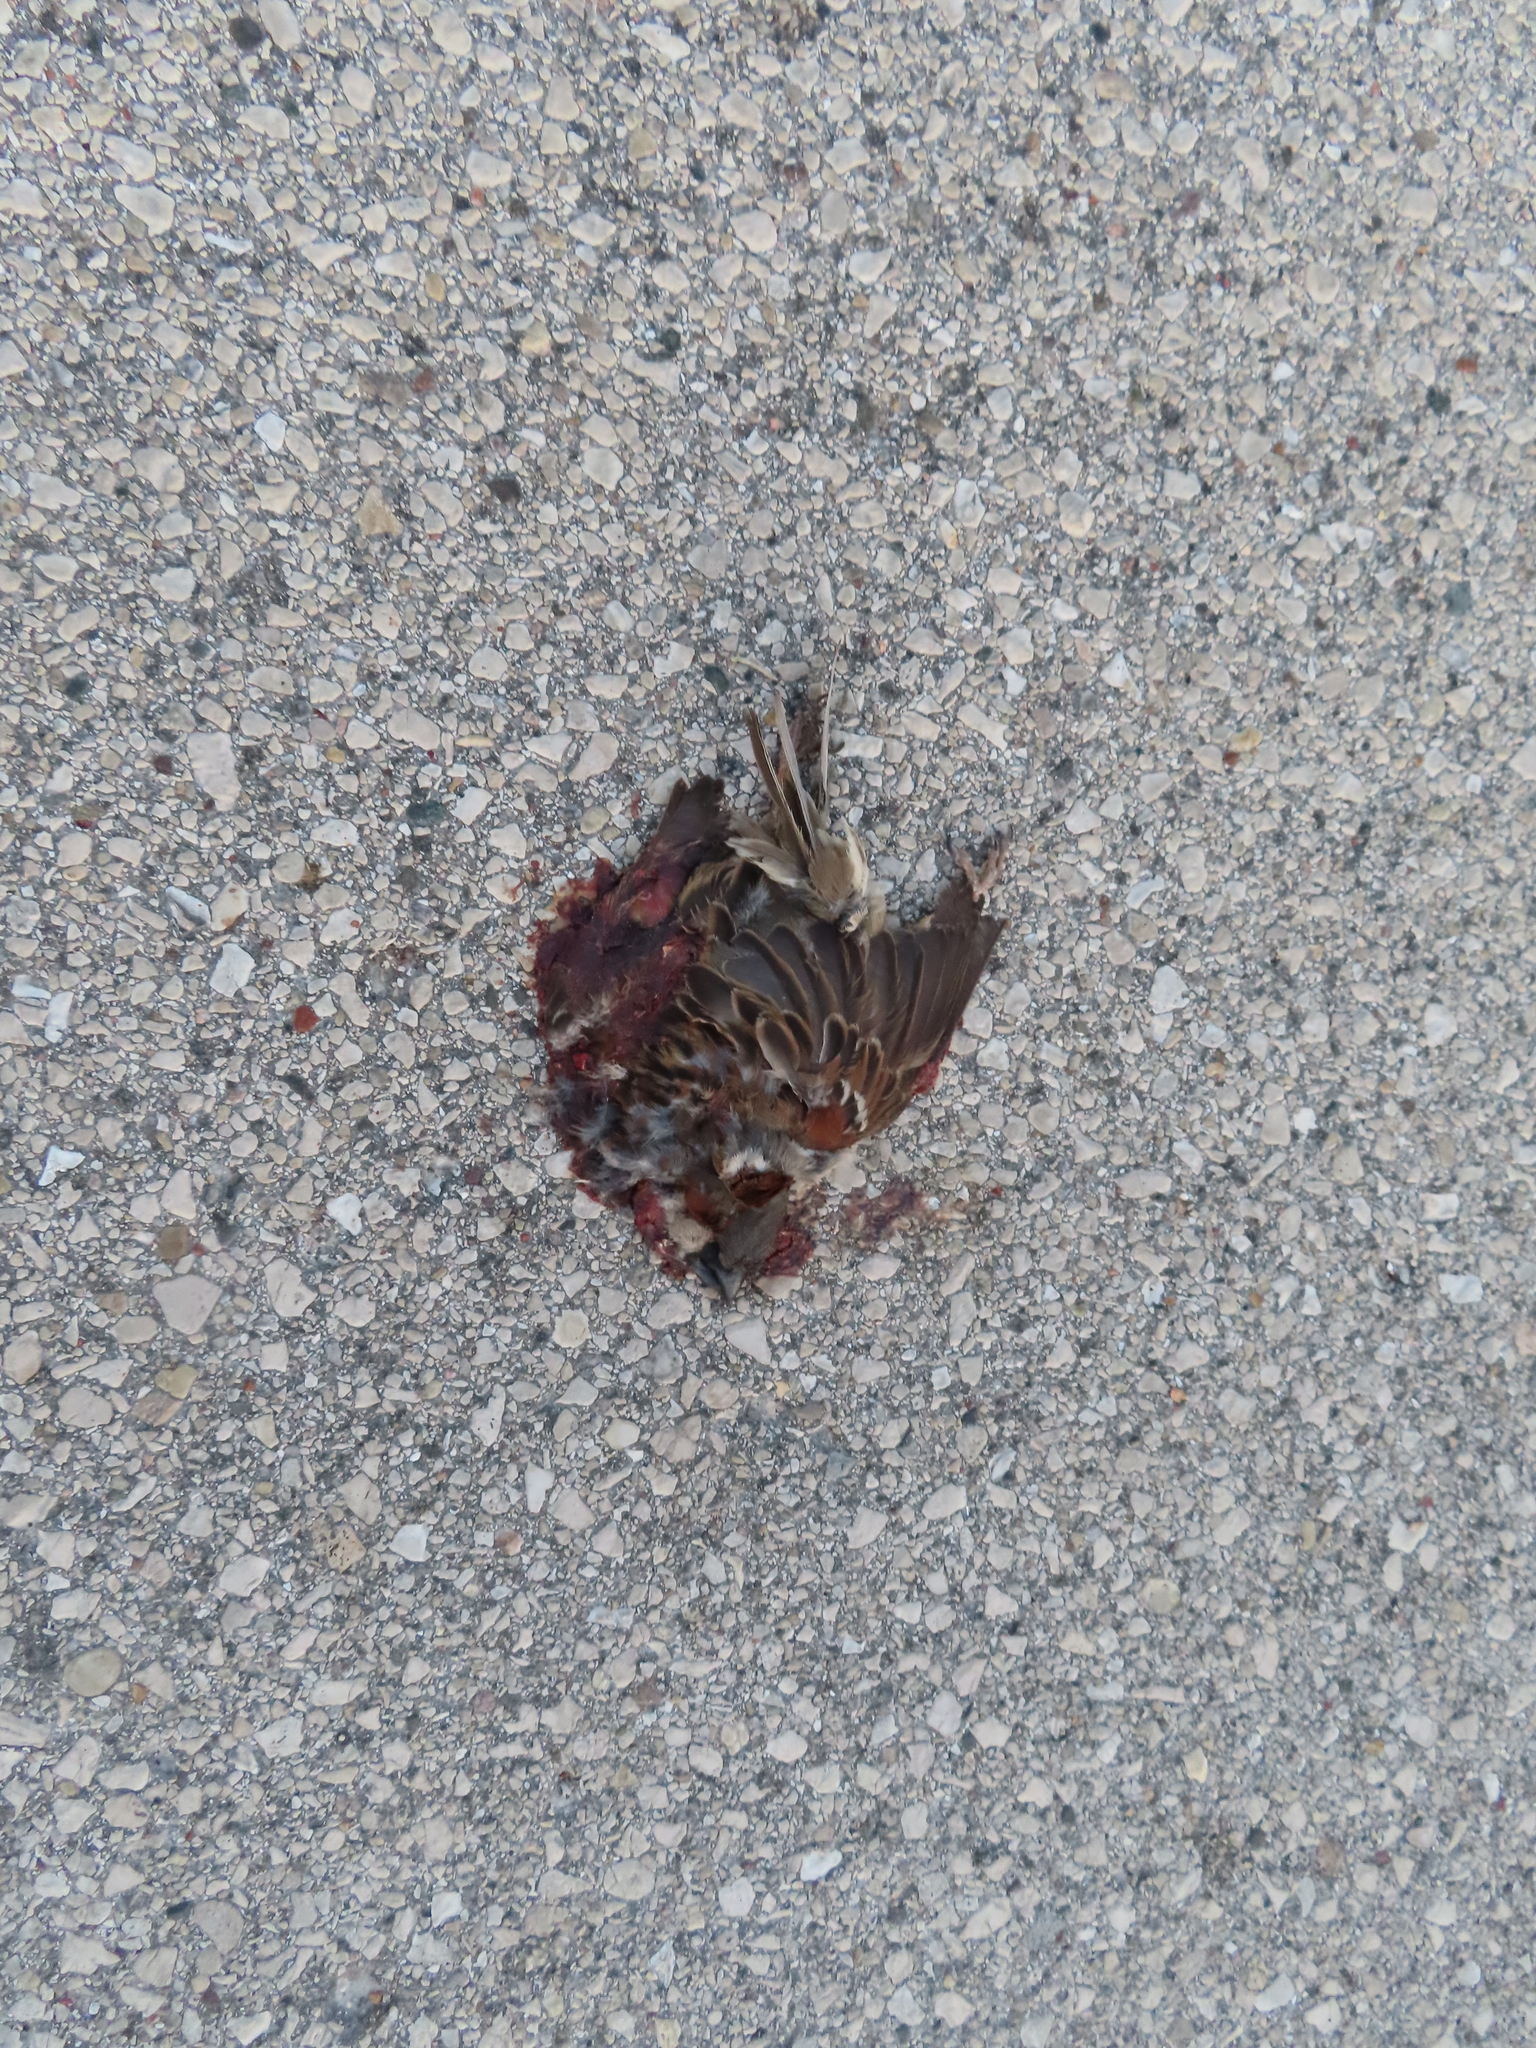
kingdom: Animalia
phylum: Chordata
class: Aves
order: Passeriformes
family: Passeridae
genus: Passer
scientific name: Passer domesticus
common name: House sparrow
